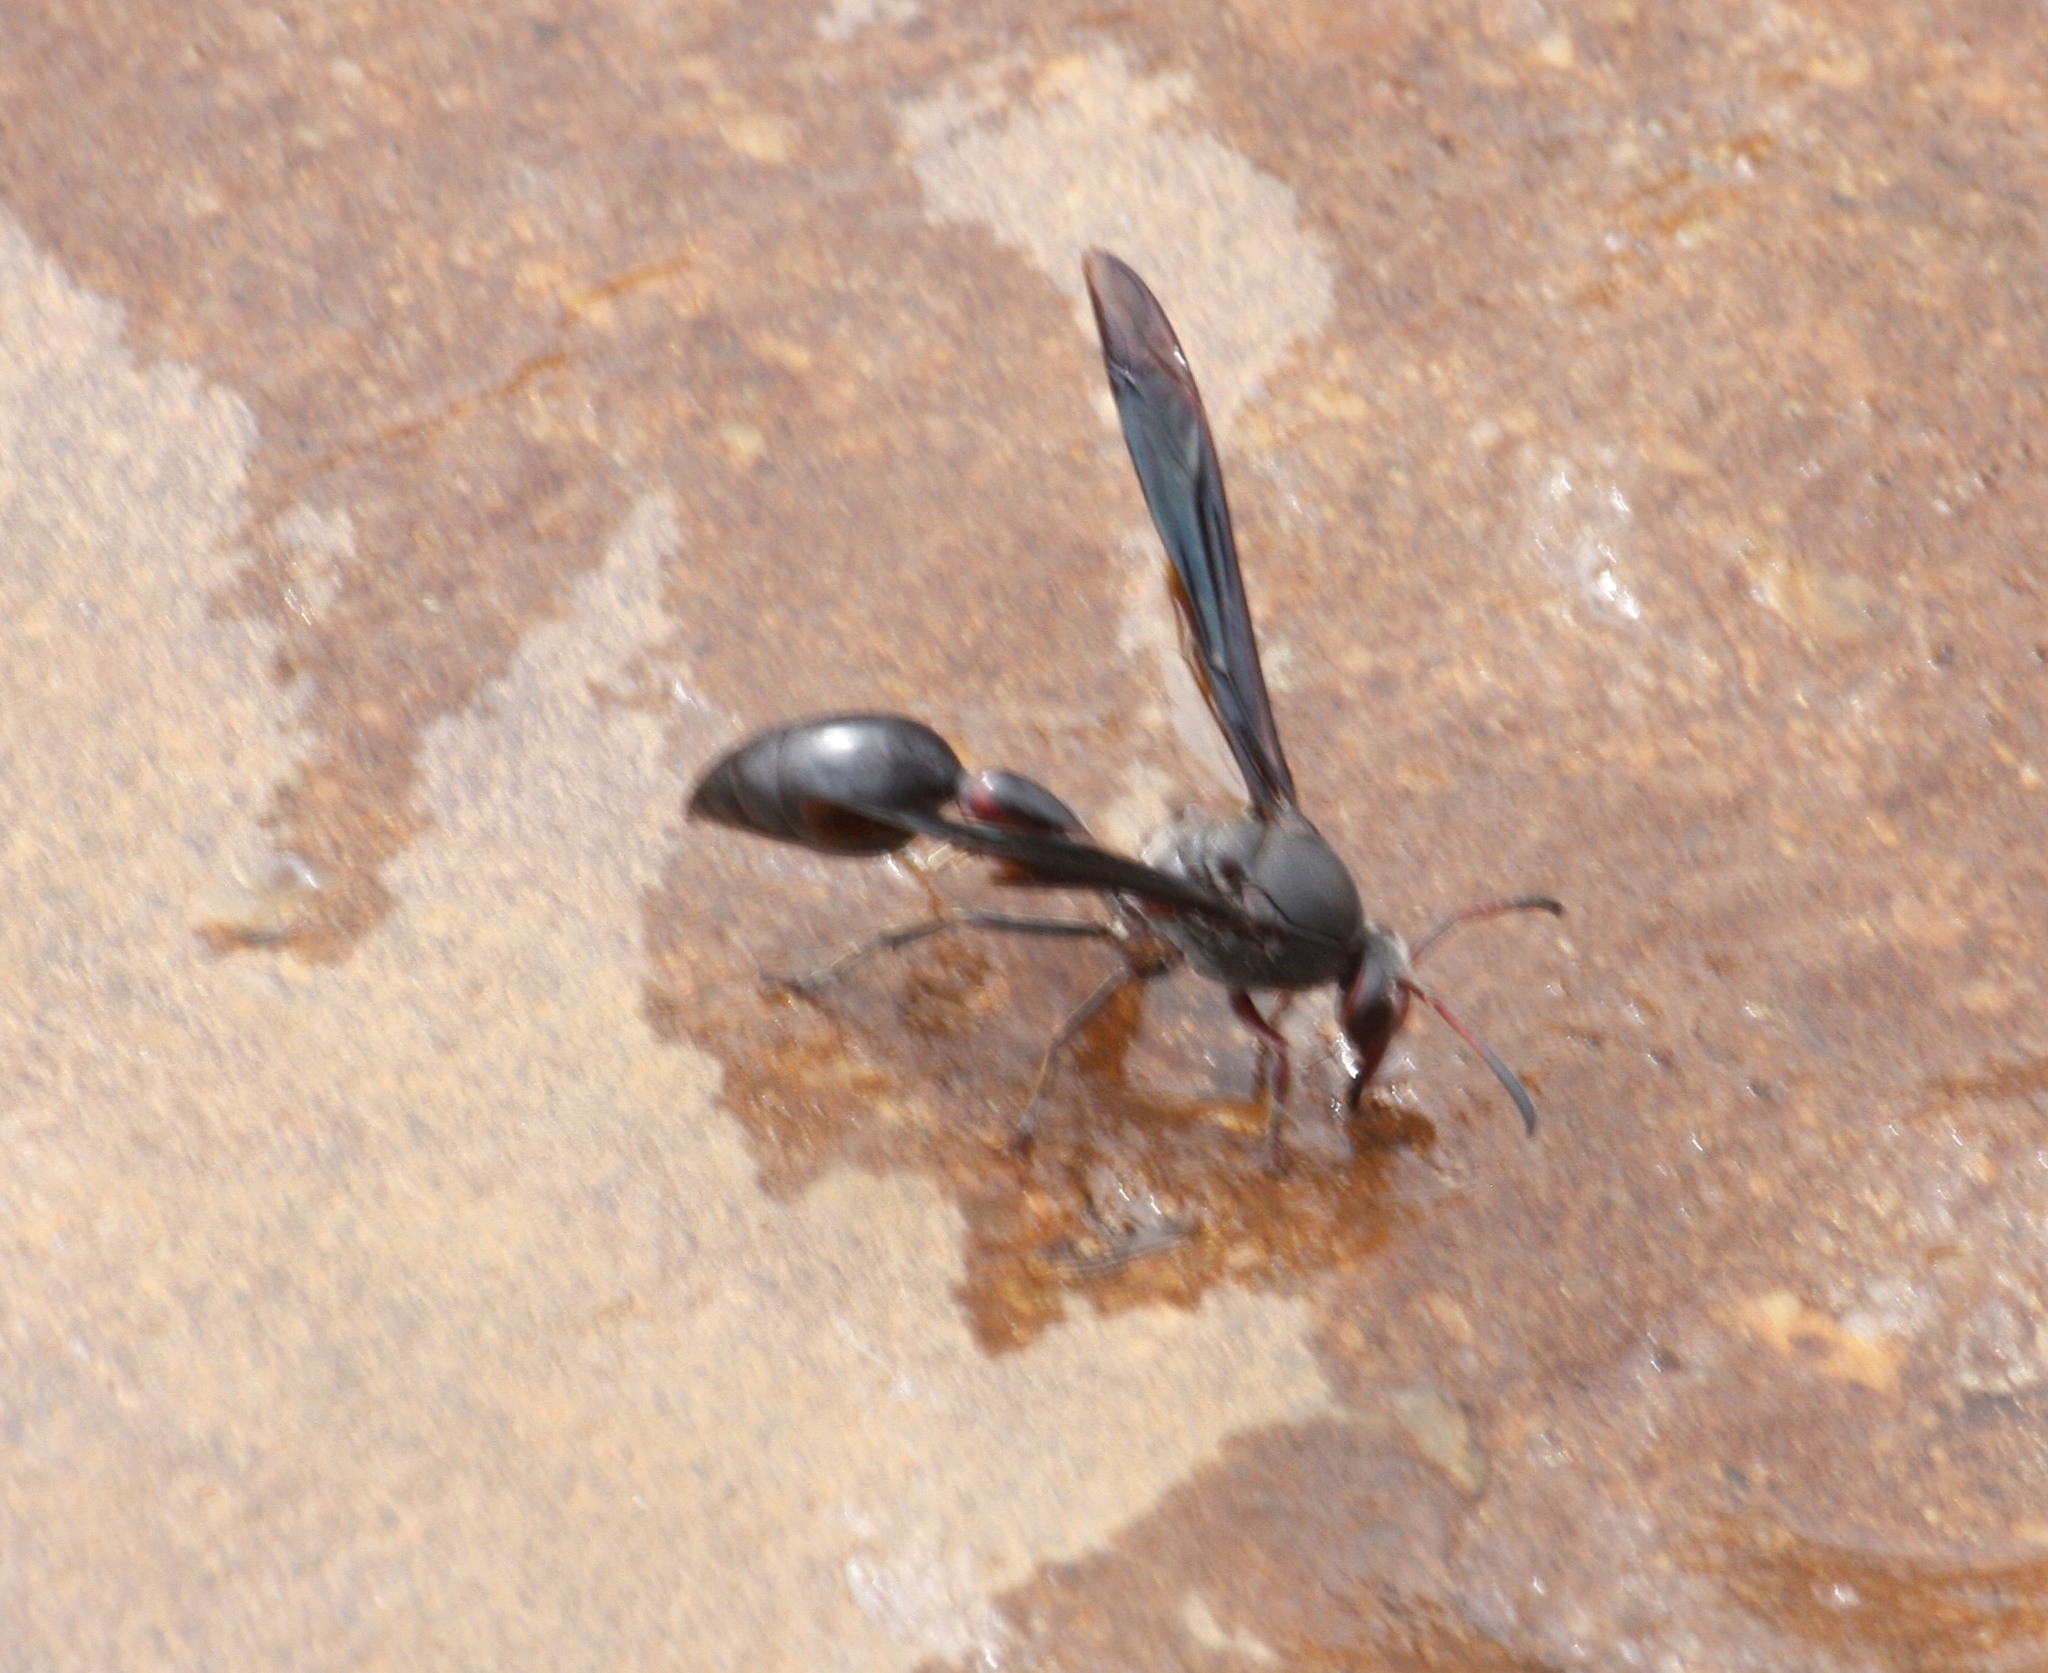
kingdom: Animalia
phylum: Arthropoda
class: Insecta
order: Hymenoptera
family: Eumenidae
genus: Delta
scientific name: Delta emarginatum
